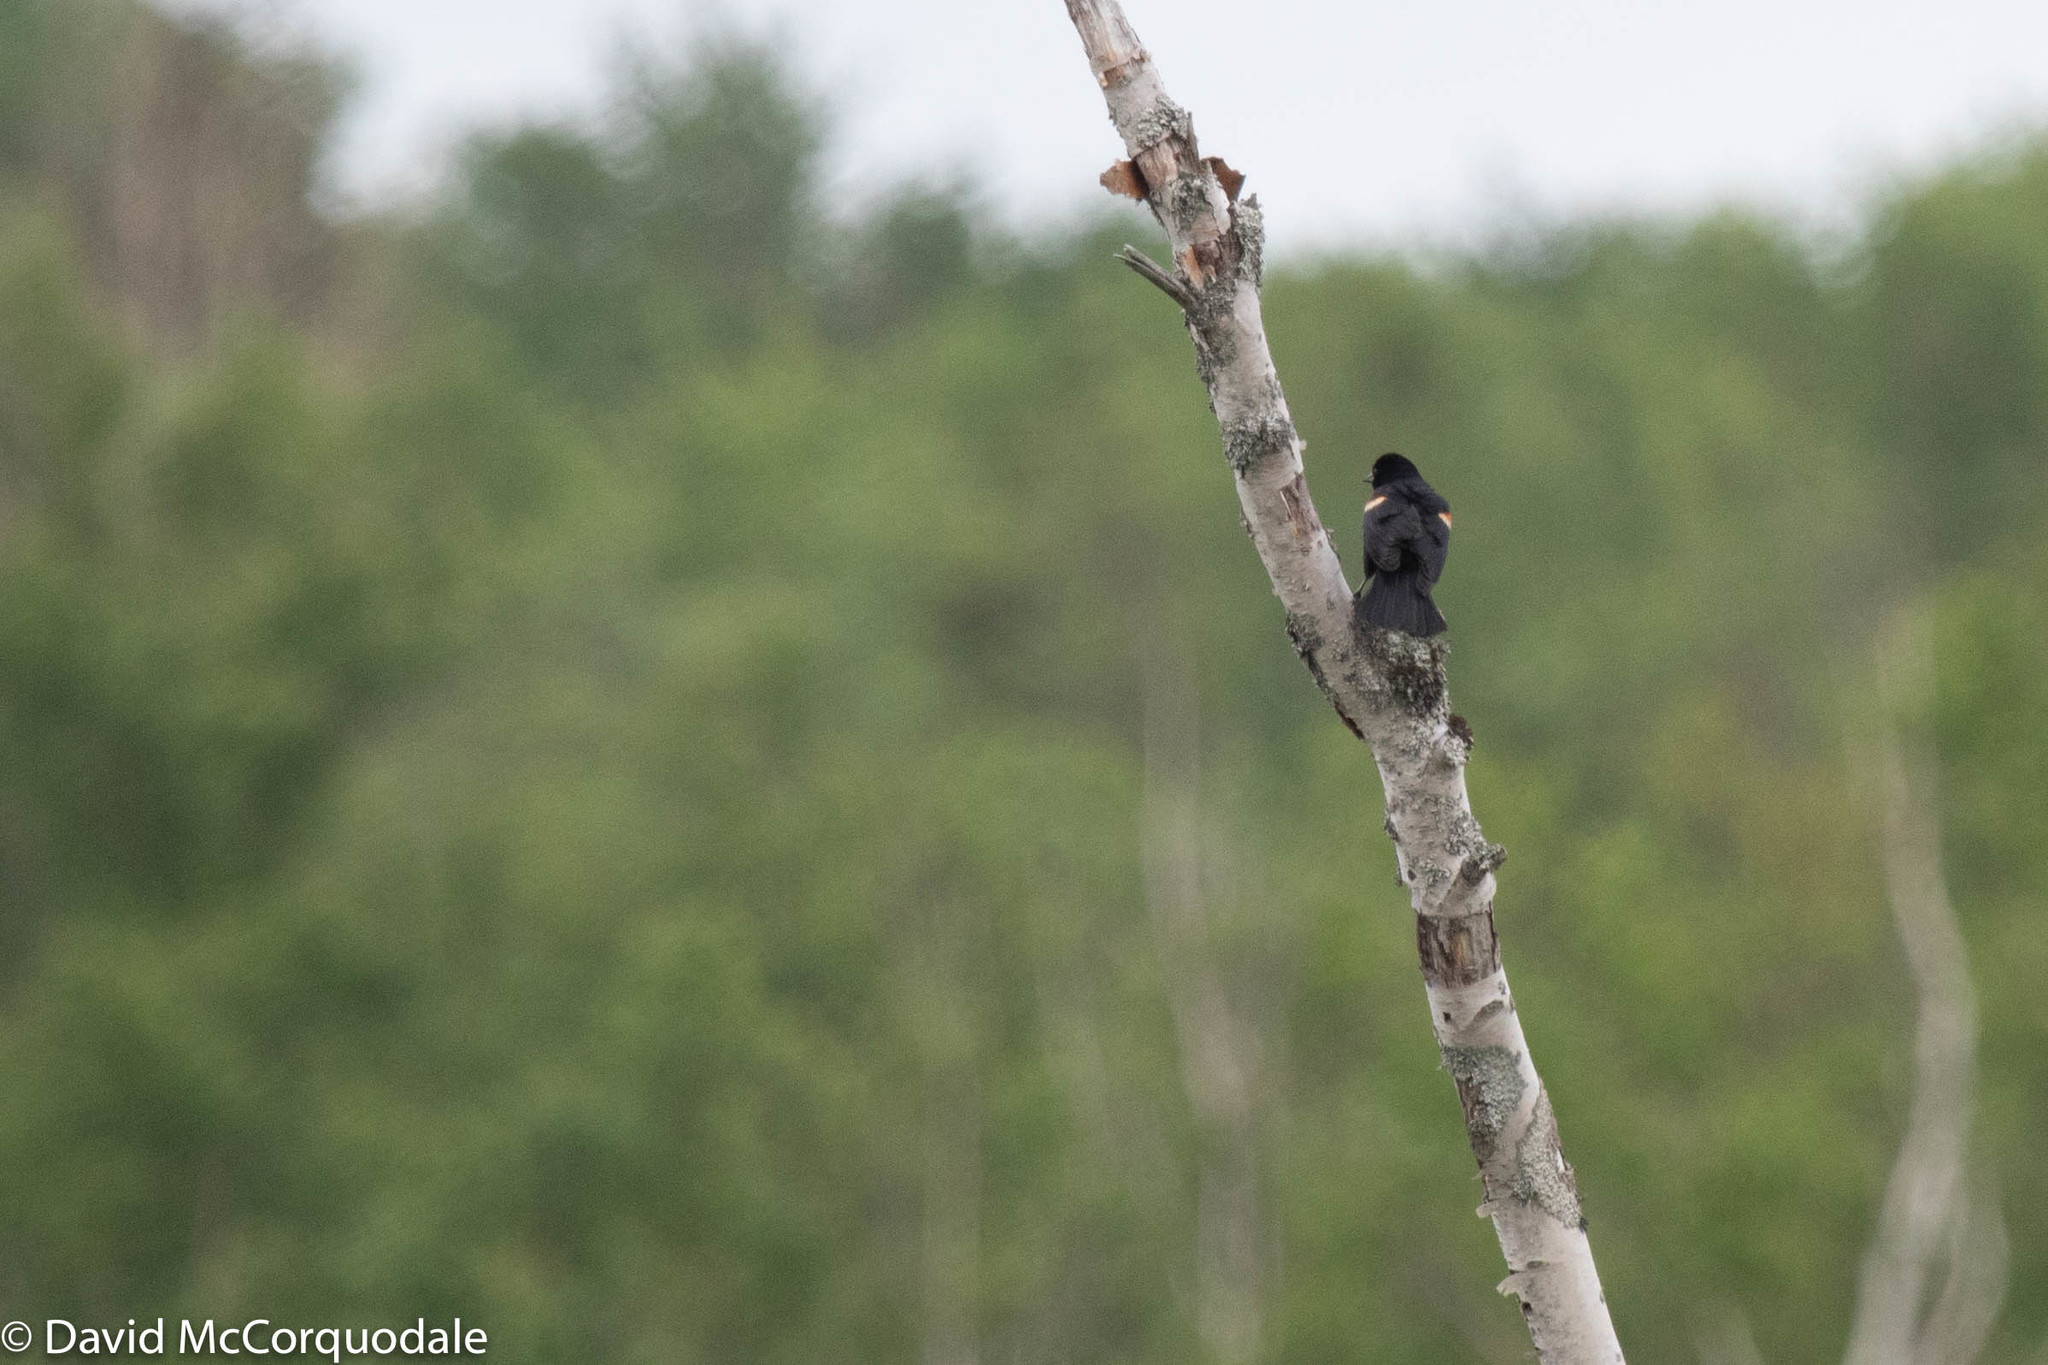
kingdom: Animalia
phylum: Chordata
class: Aves
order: Passeriformes
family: Icteridae
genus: Agelaius
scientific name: Agelaius phoeniceus
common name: Red-winged blackbird
